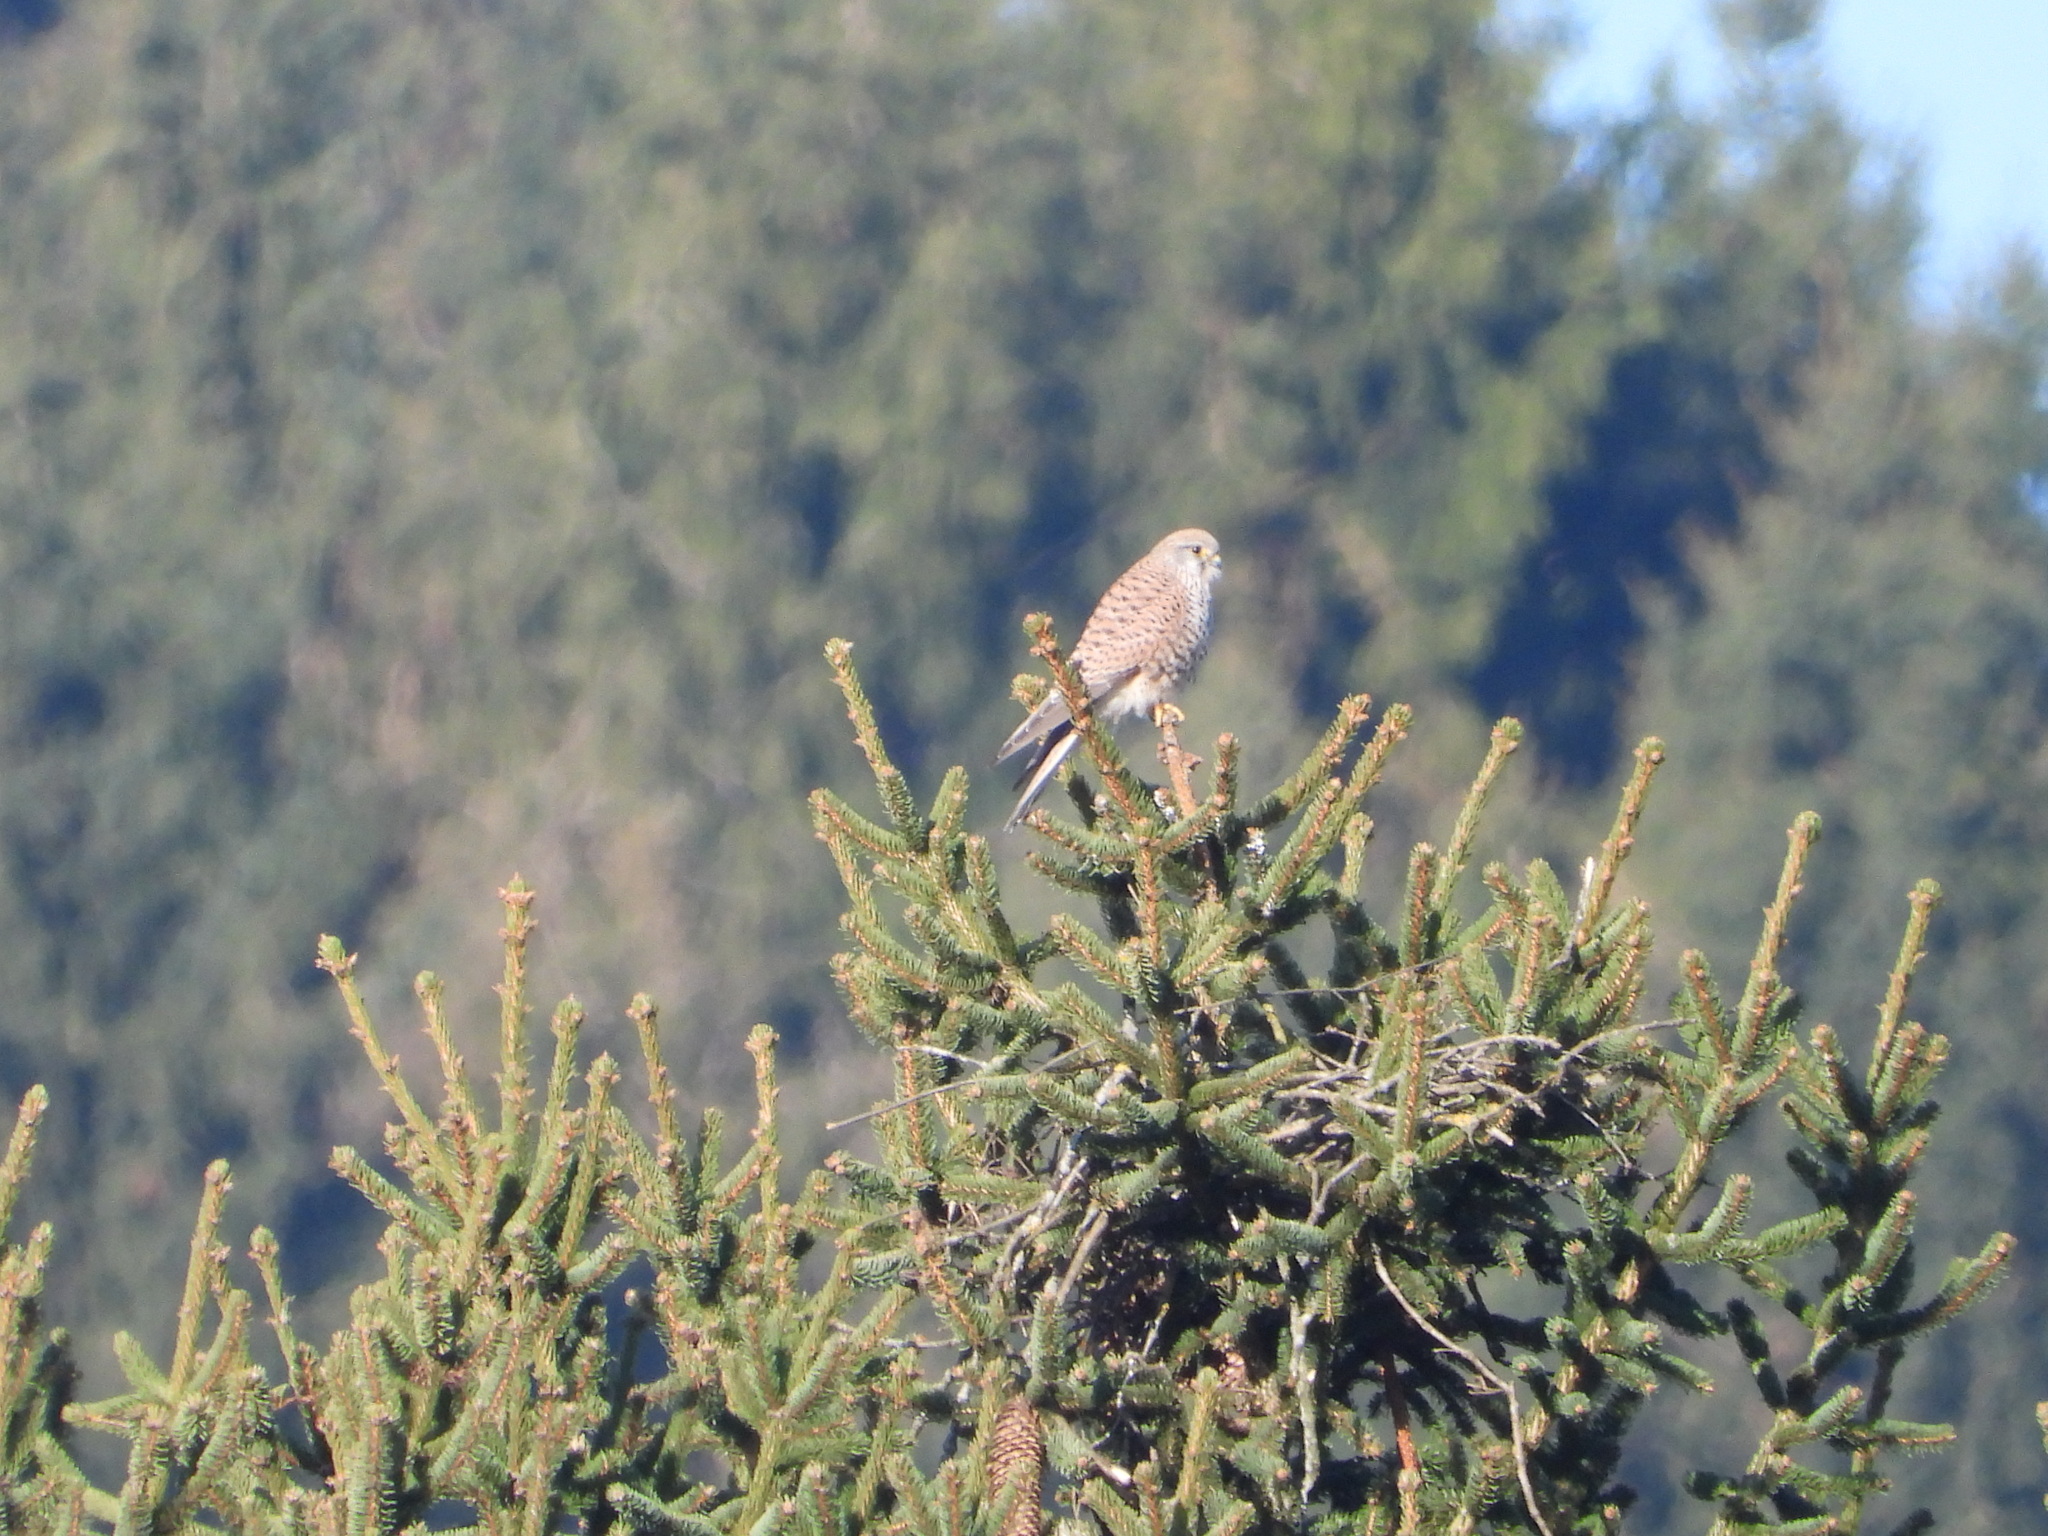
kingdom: Animalia
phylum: Chordata
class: Aves
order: Falconiformes
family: Falconidae
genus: Falco
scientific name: Falco tinnunculus
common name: Common kestrel
